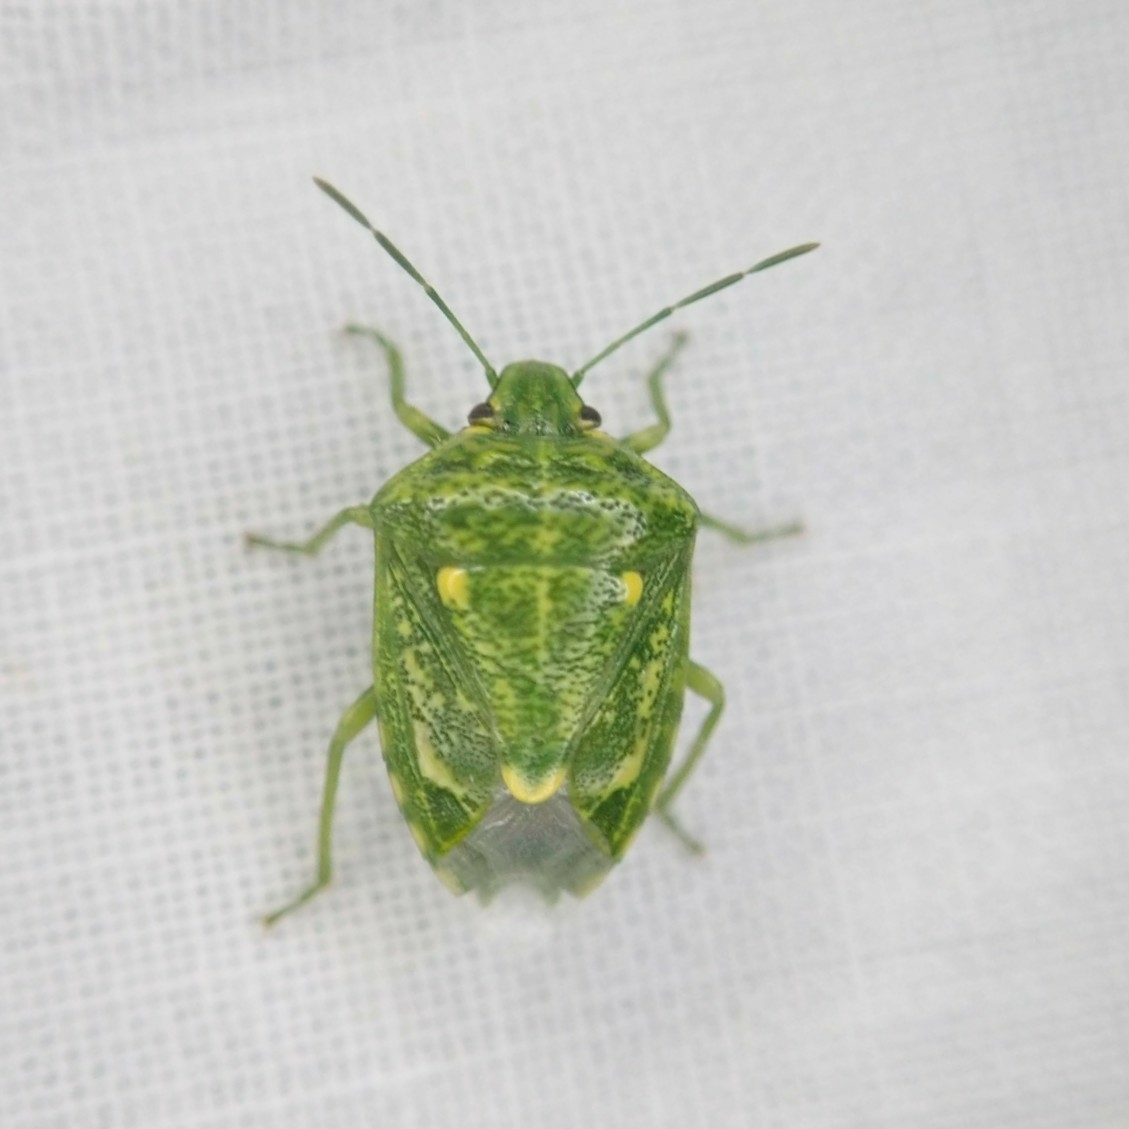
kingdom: Animalia
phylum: Arthropoda
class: Insecta
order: Hemiptera
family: Pentatomidae
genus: Banasa
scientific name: Banasa euchlora
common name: Cedar berry bug
